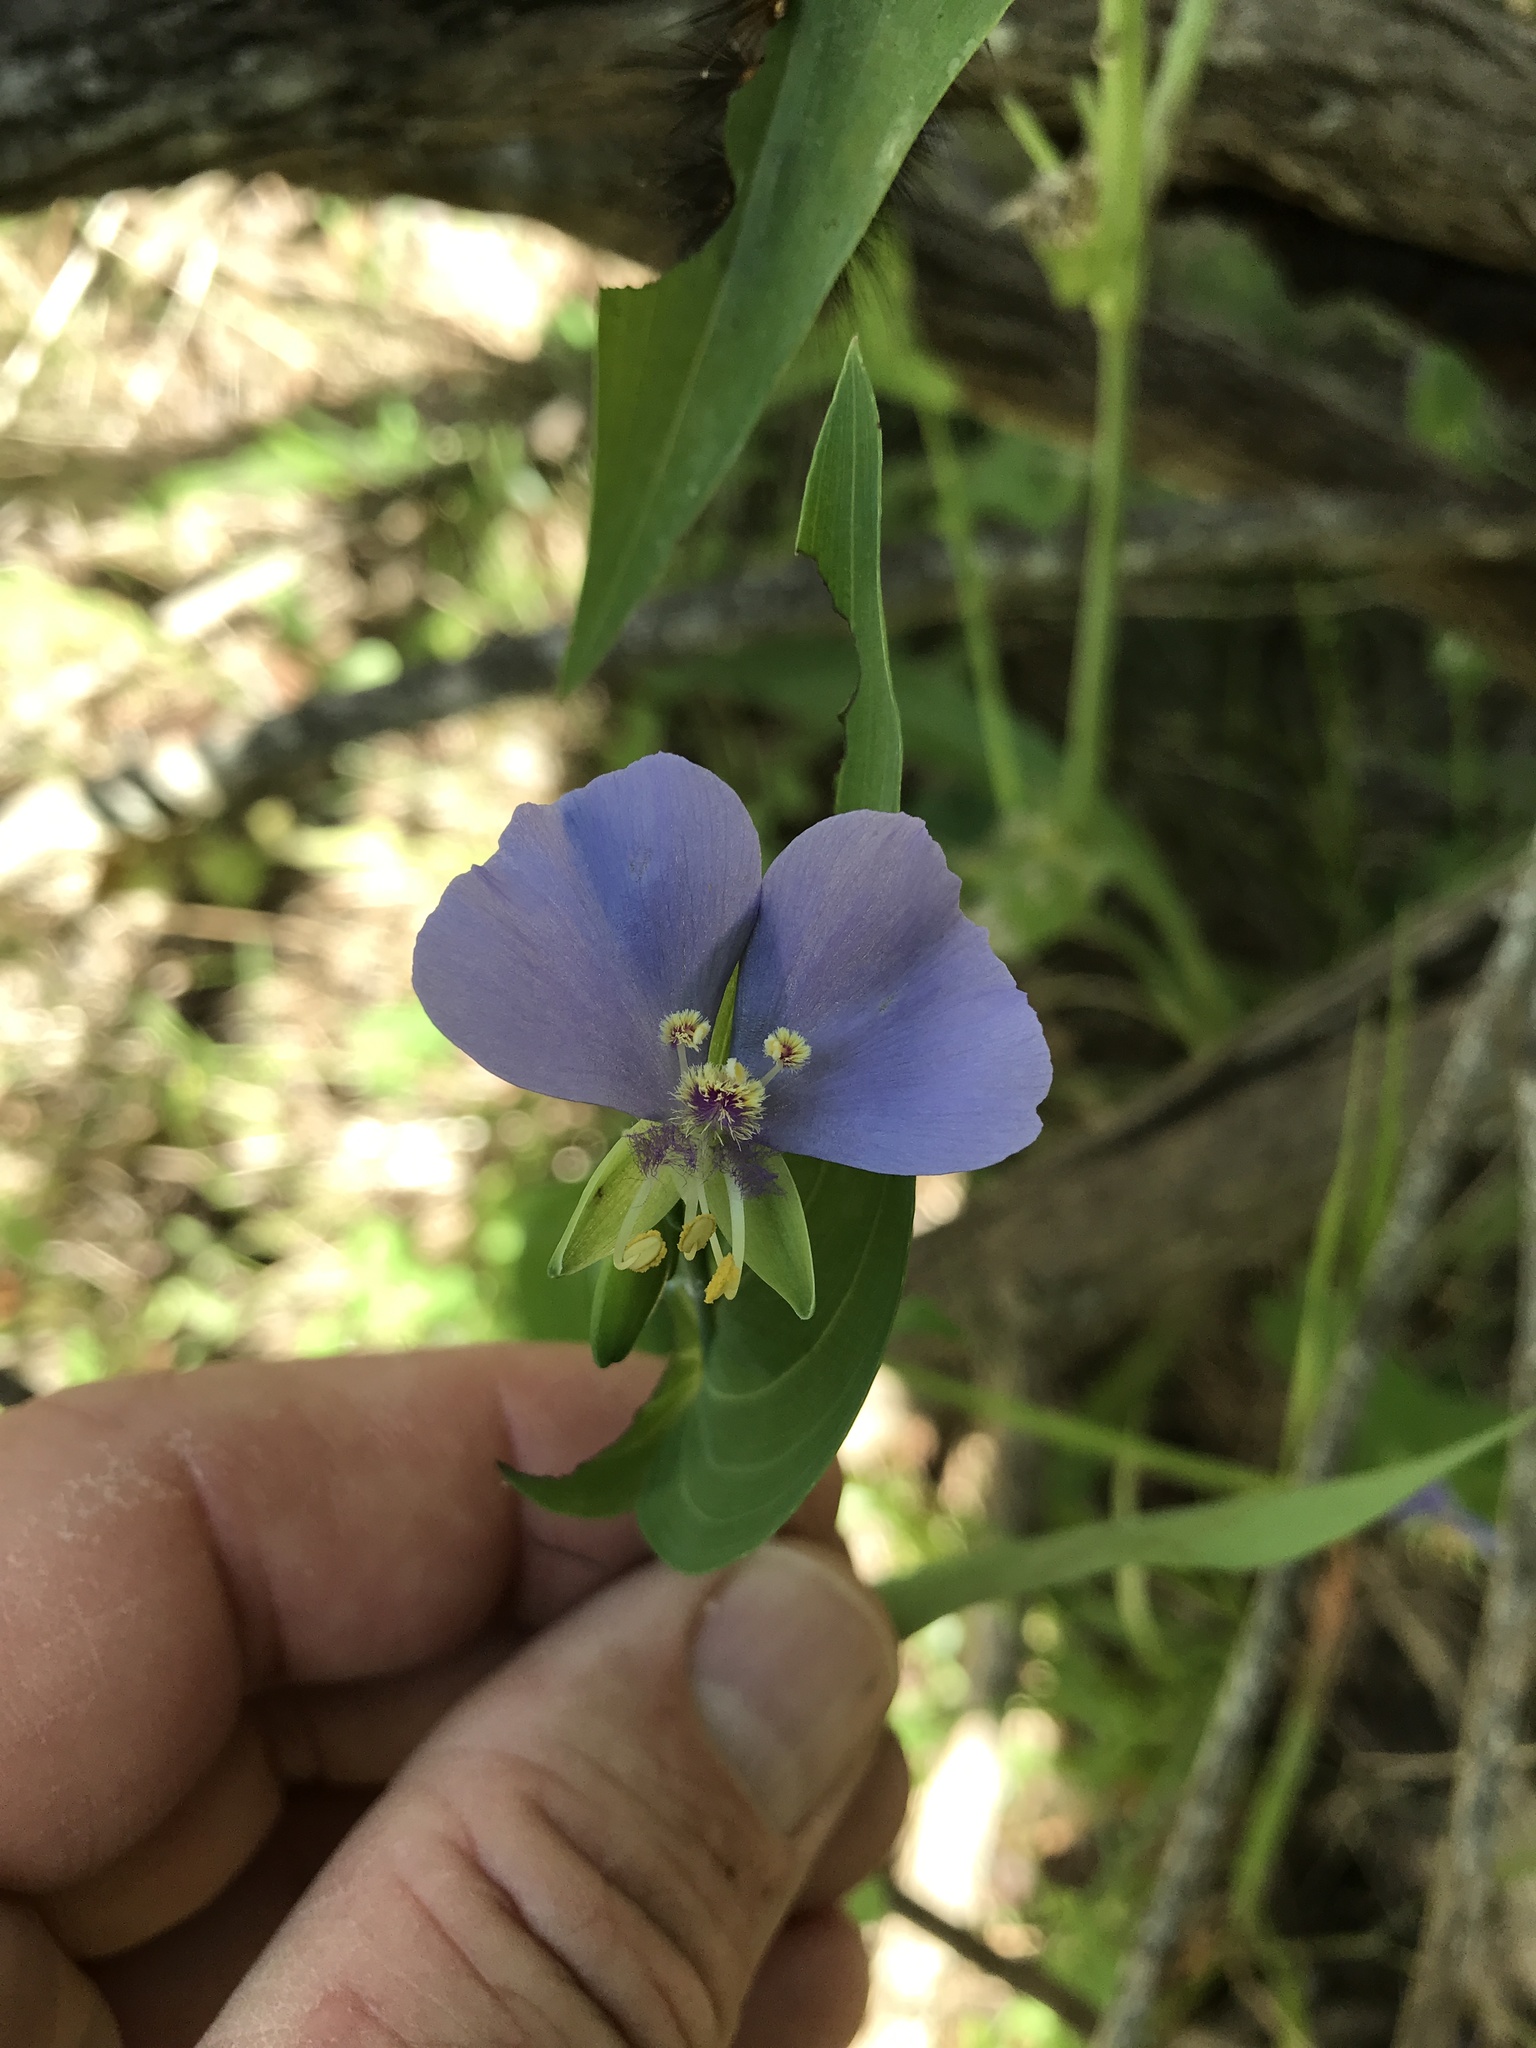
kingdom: Plantae
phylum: Tracheophyta
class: Liliopsida
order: Commelinales
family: Commelinaceae
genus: Tinantia
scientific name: Tinantia anomala
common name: False dayflower
